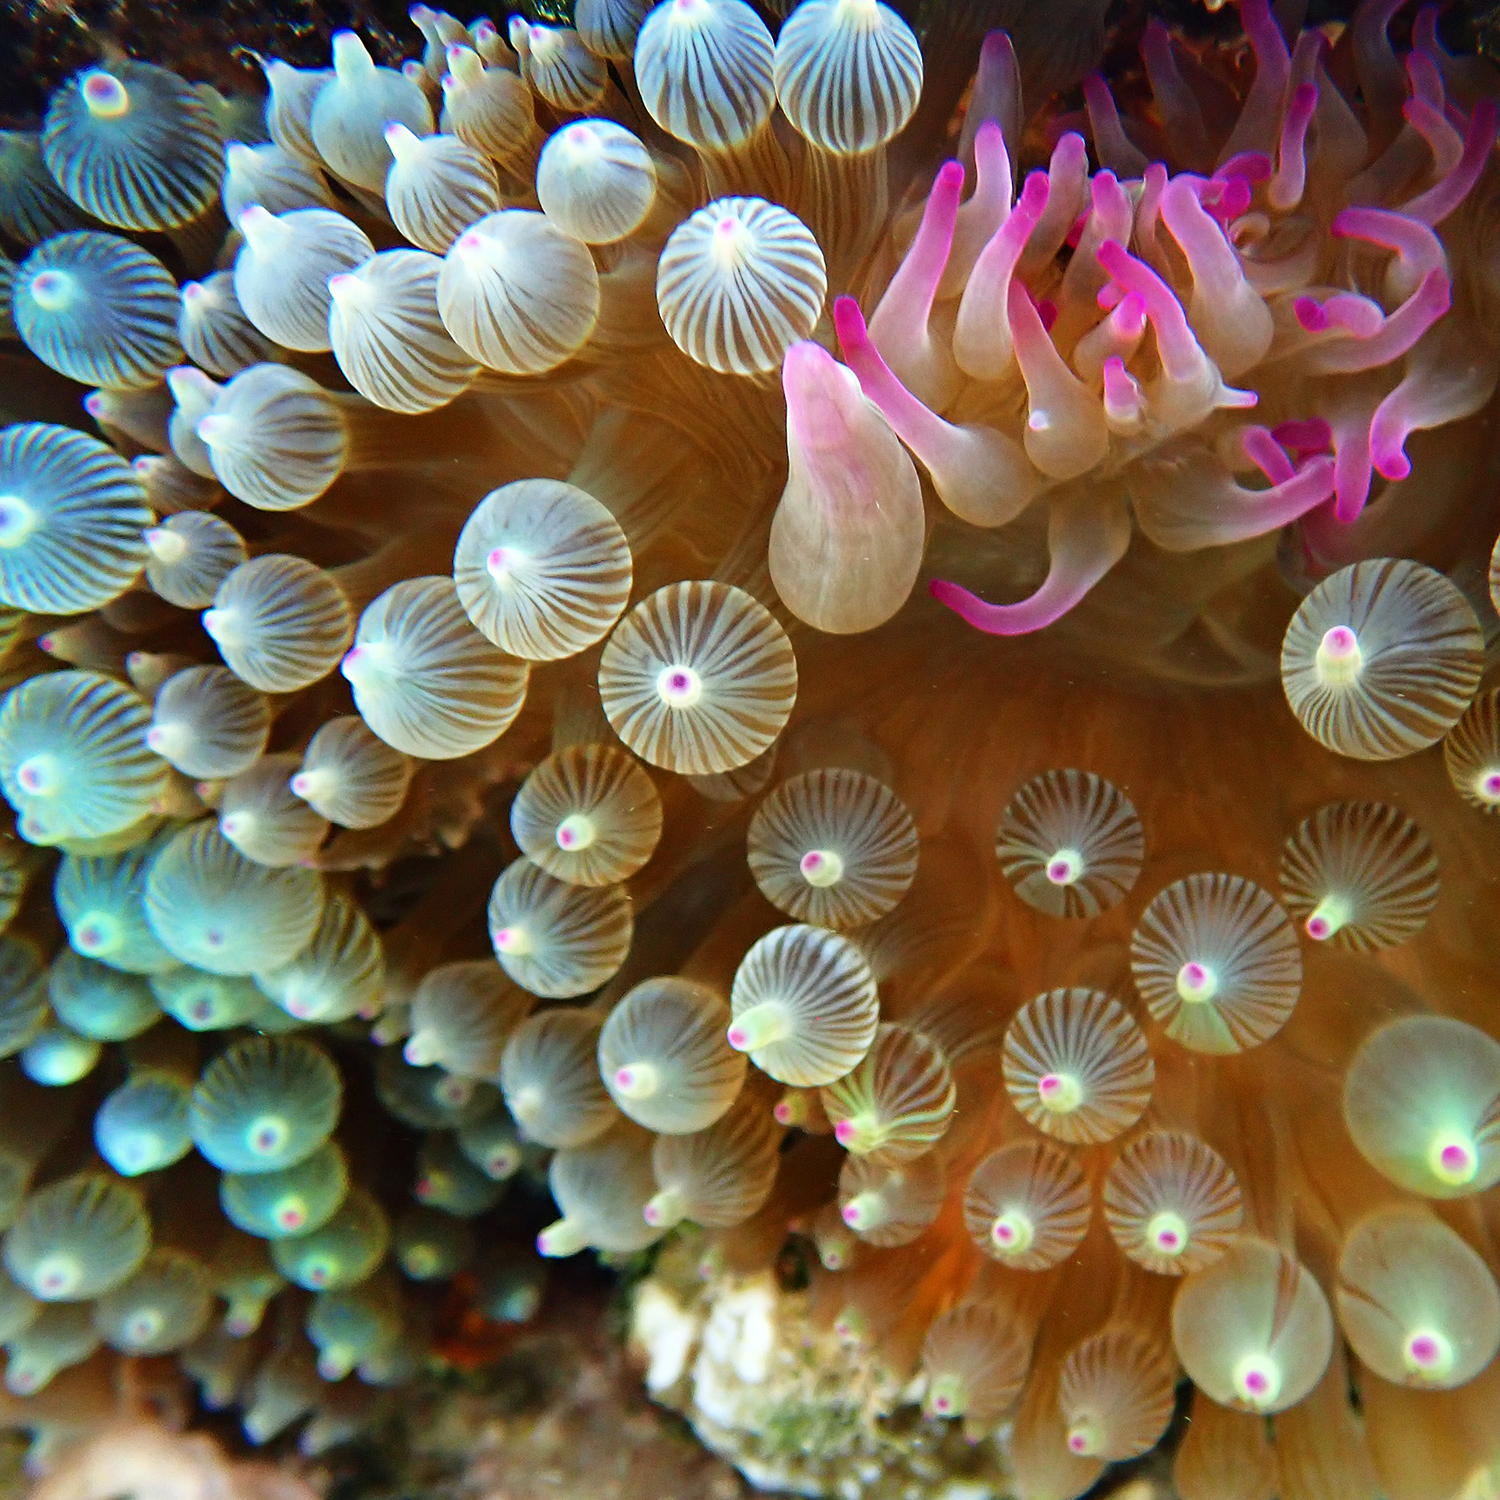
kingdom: Animalia
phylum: Cnidaria
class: Anthozoa
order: Actiniaria
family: Actiniidae
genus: Entacmaea
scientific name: Entacmaea quadricolor
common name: Bulb tentacle sea anemone
